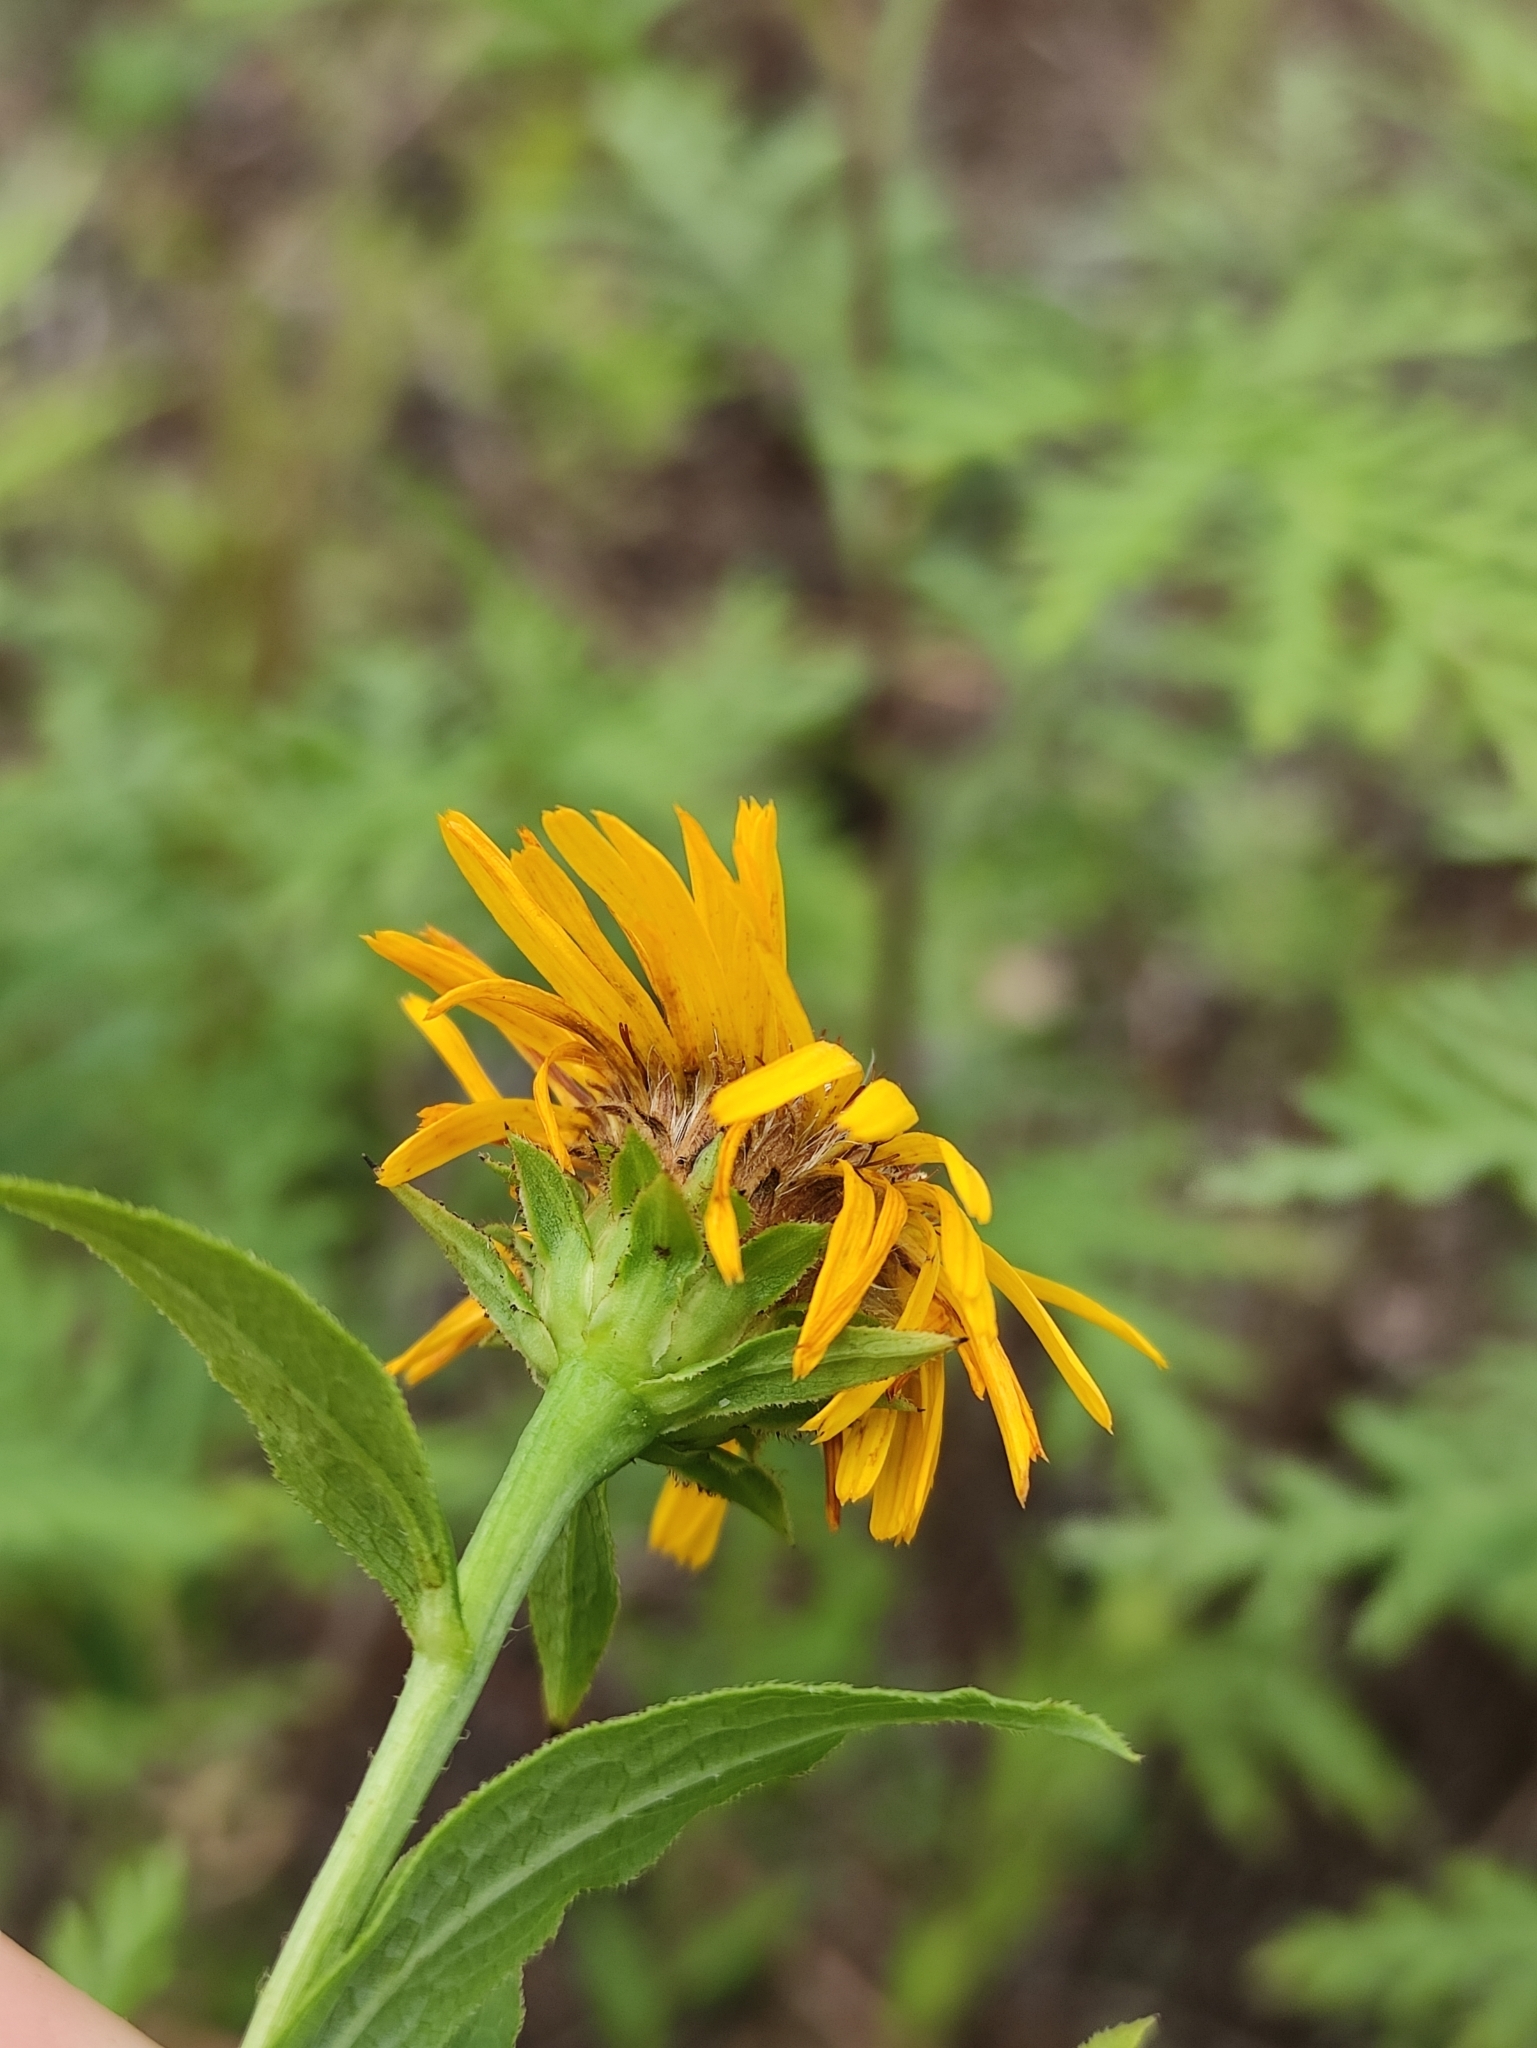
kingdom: Plantae
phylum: Tracheophyta
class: Magnoliopsida
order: Asterales
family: Asteraceae
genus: Pentanema
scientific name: Pentanema salicinum
